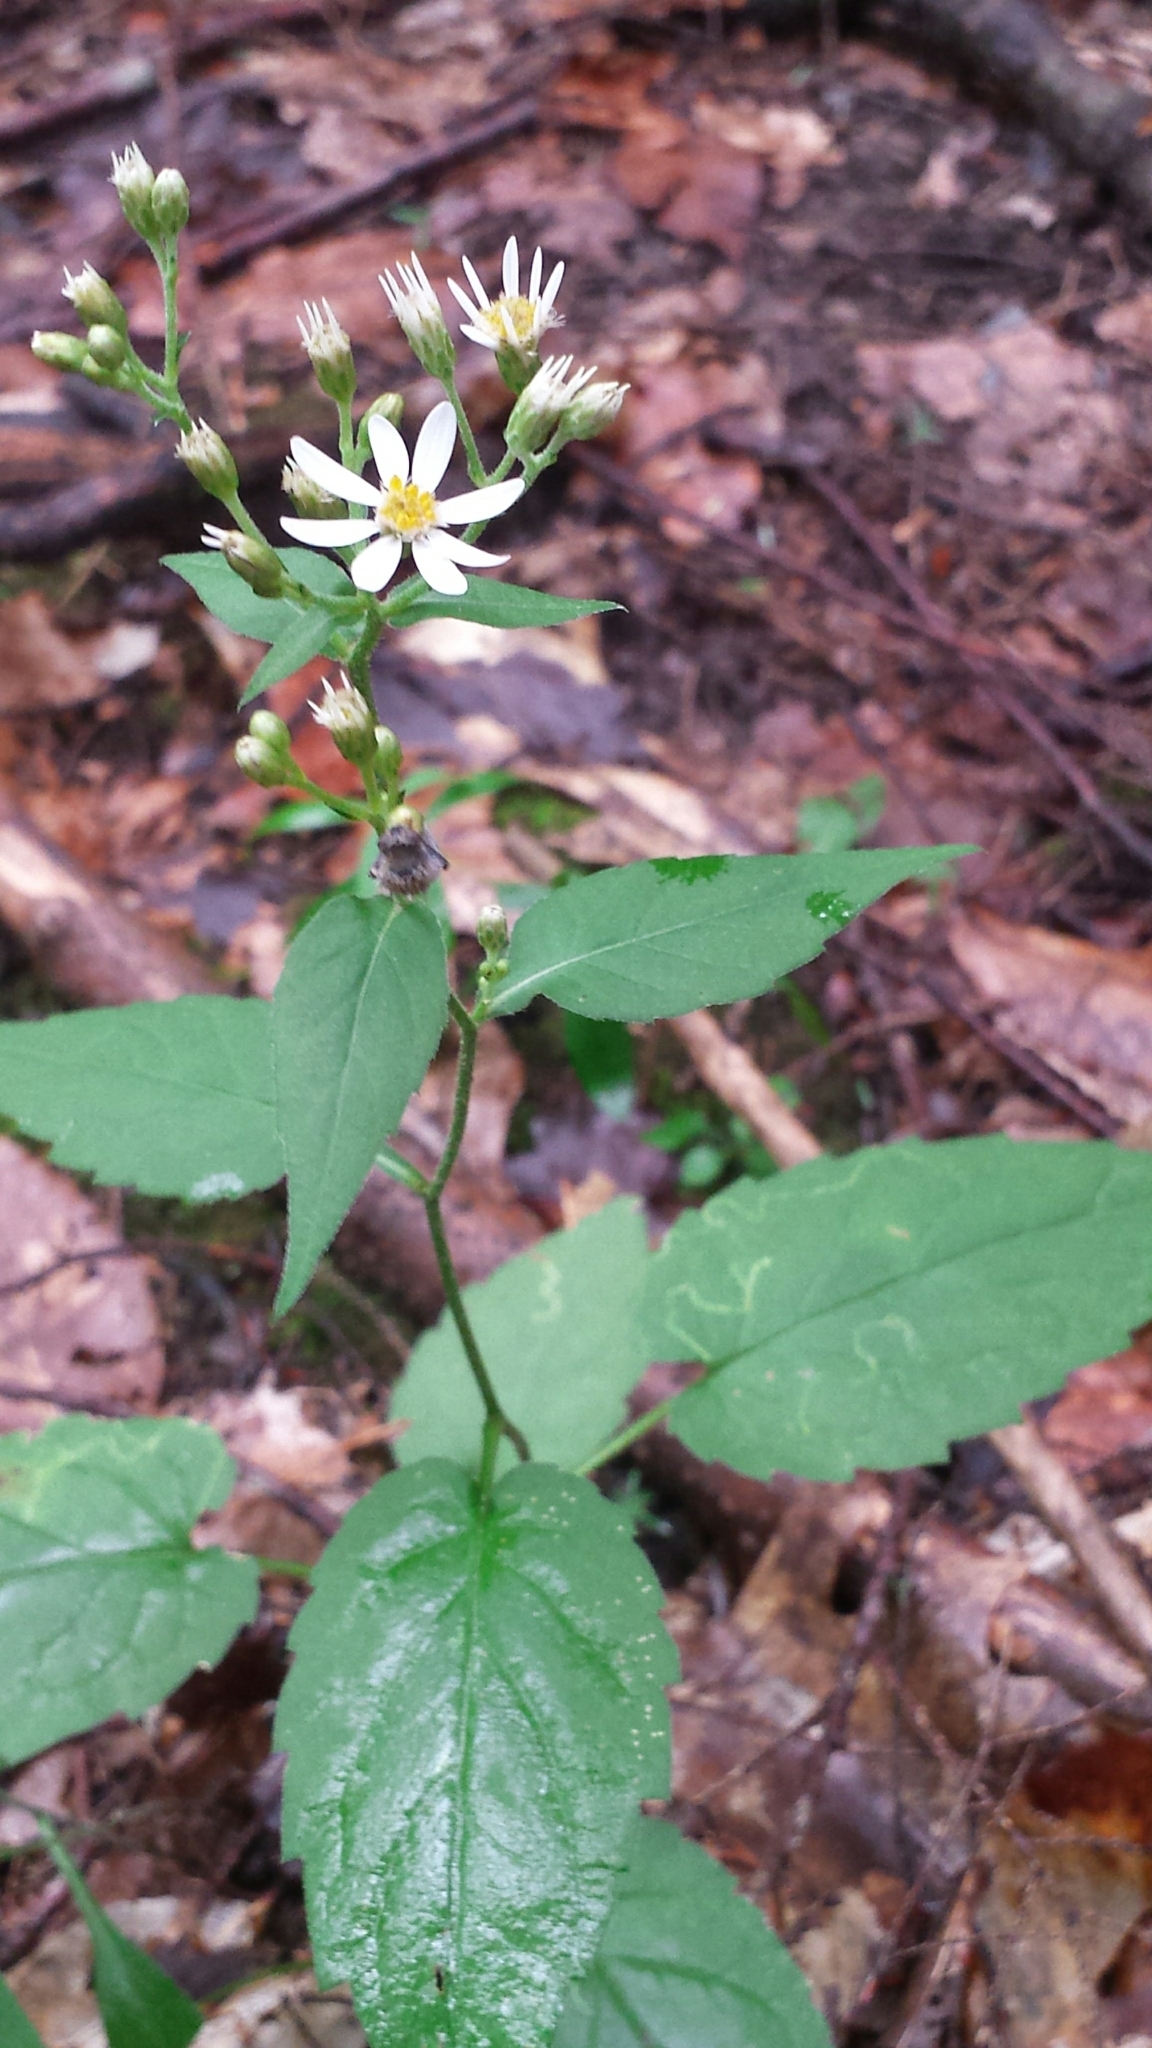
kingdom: Plantae
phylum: Tracheophyta
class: Magnoliopsida
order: Asterales
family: Asteraceae
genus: Eurybia
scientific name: Eurybia divaricata
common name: White wood aster
